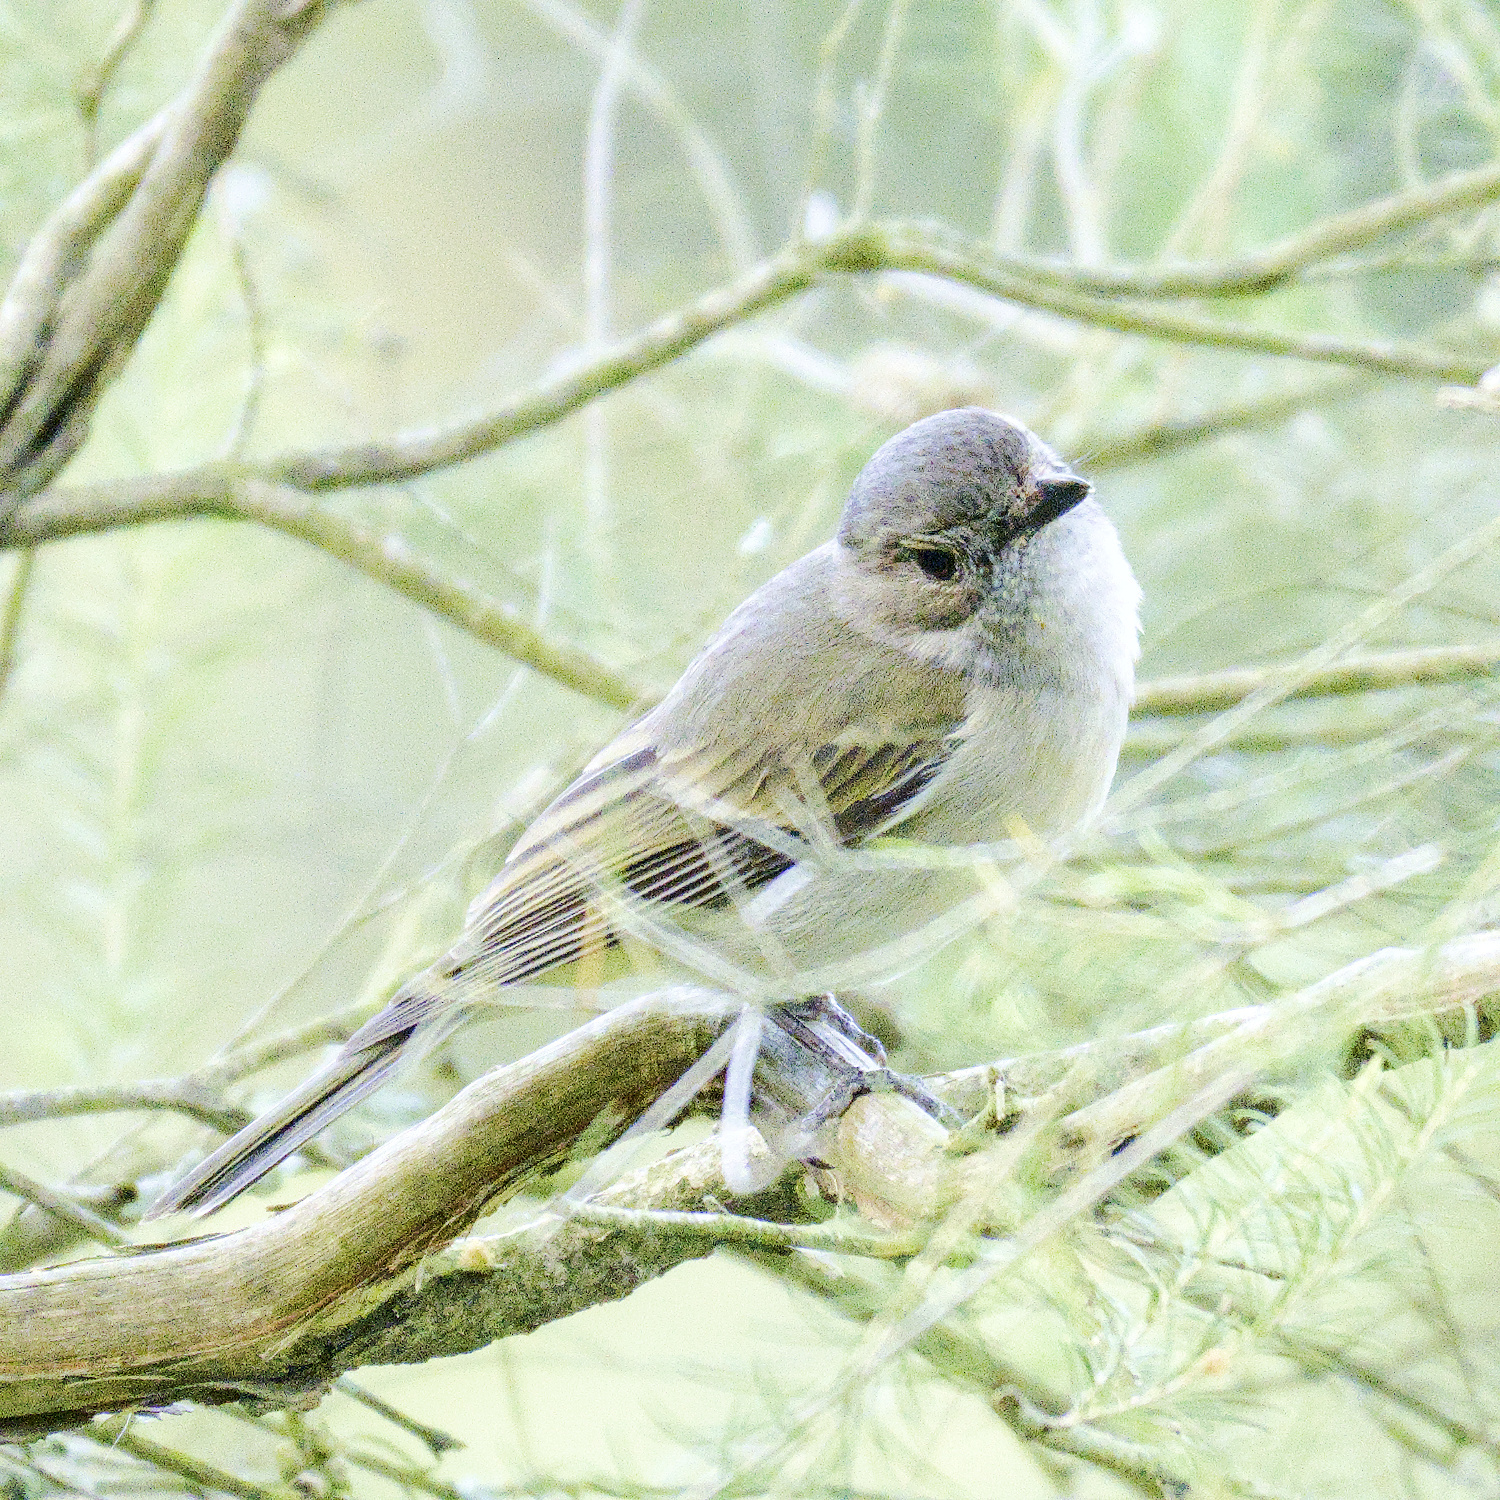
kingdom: Animalia
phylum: Chordata
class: Aves
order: Passeriformes
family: Pachycephalidae
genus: Pachycephala
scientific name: Pachycephala pectoralis
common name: Australian golden whistler
